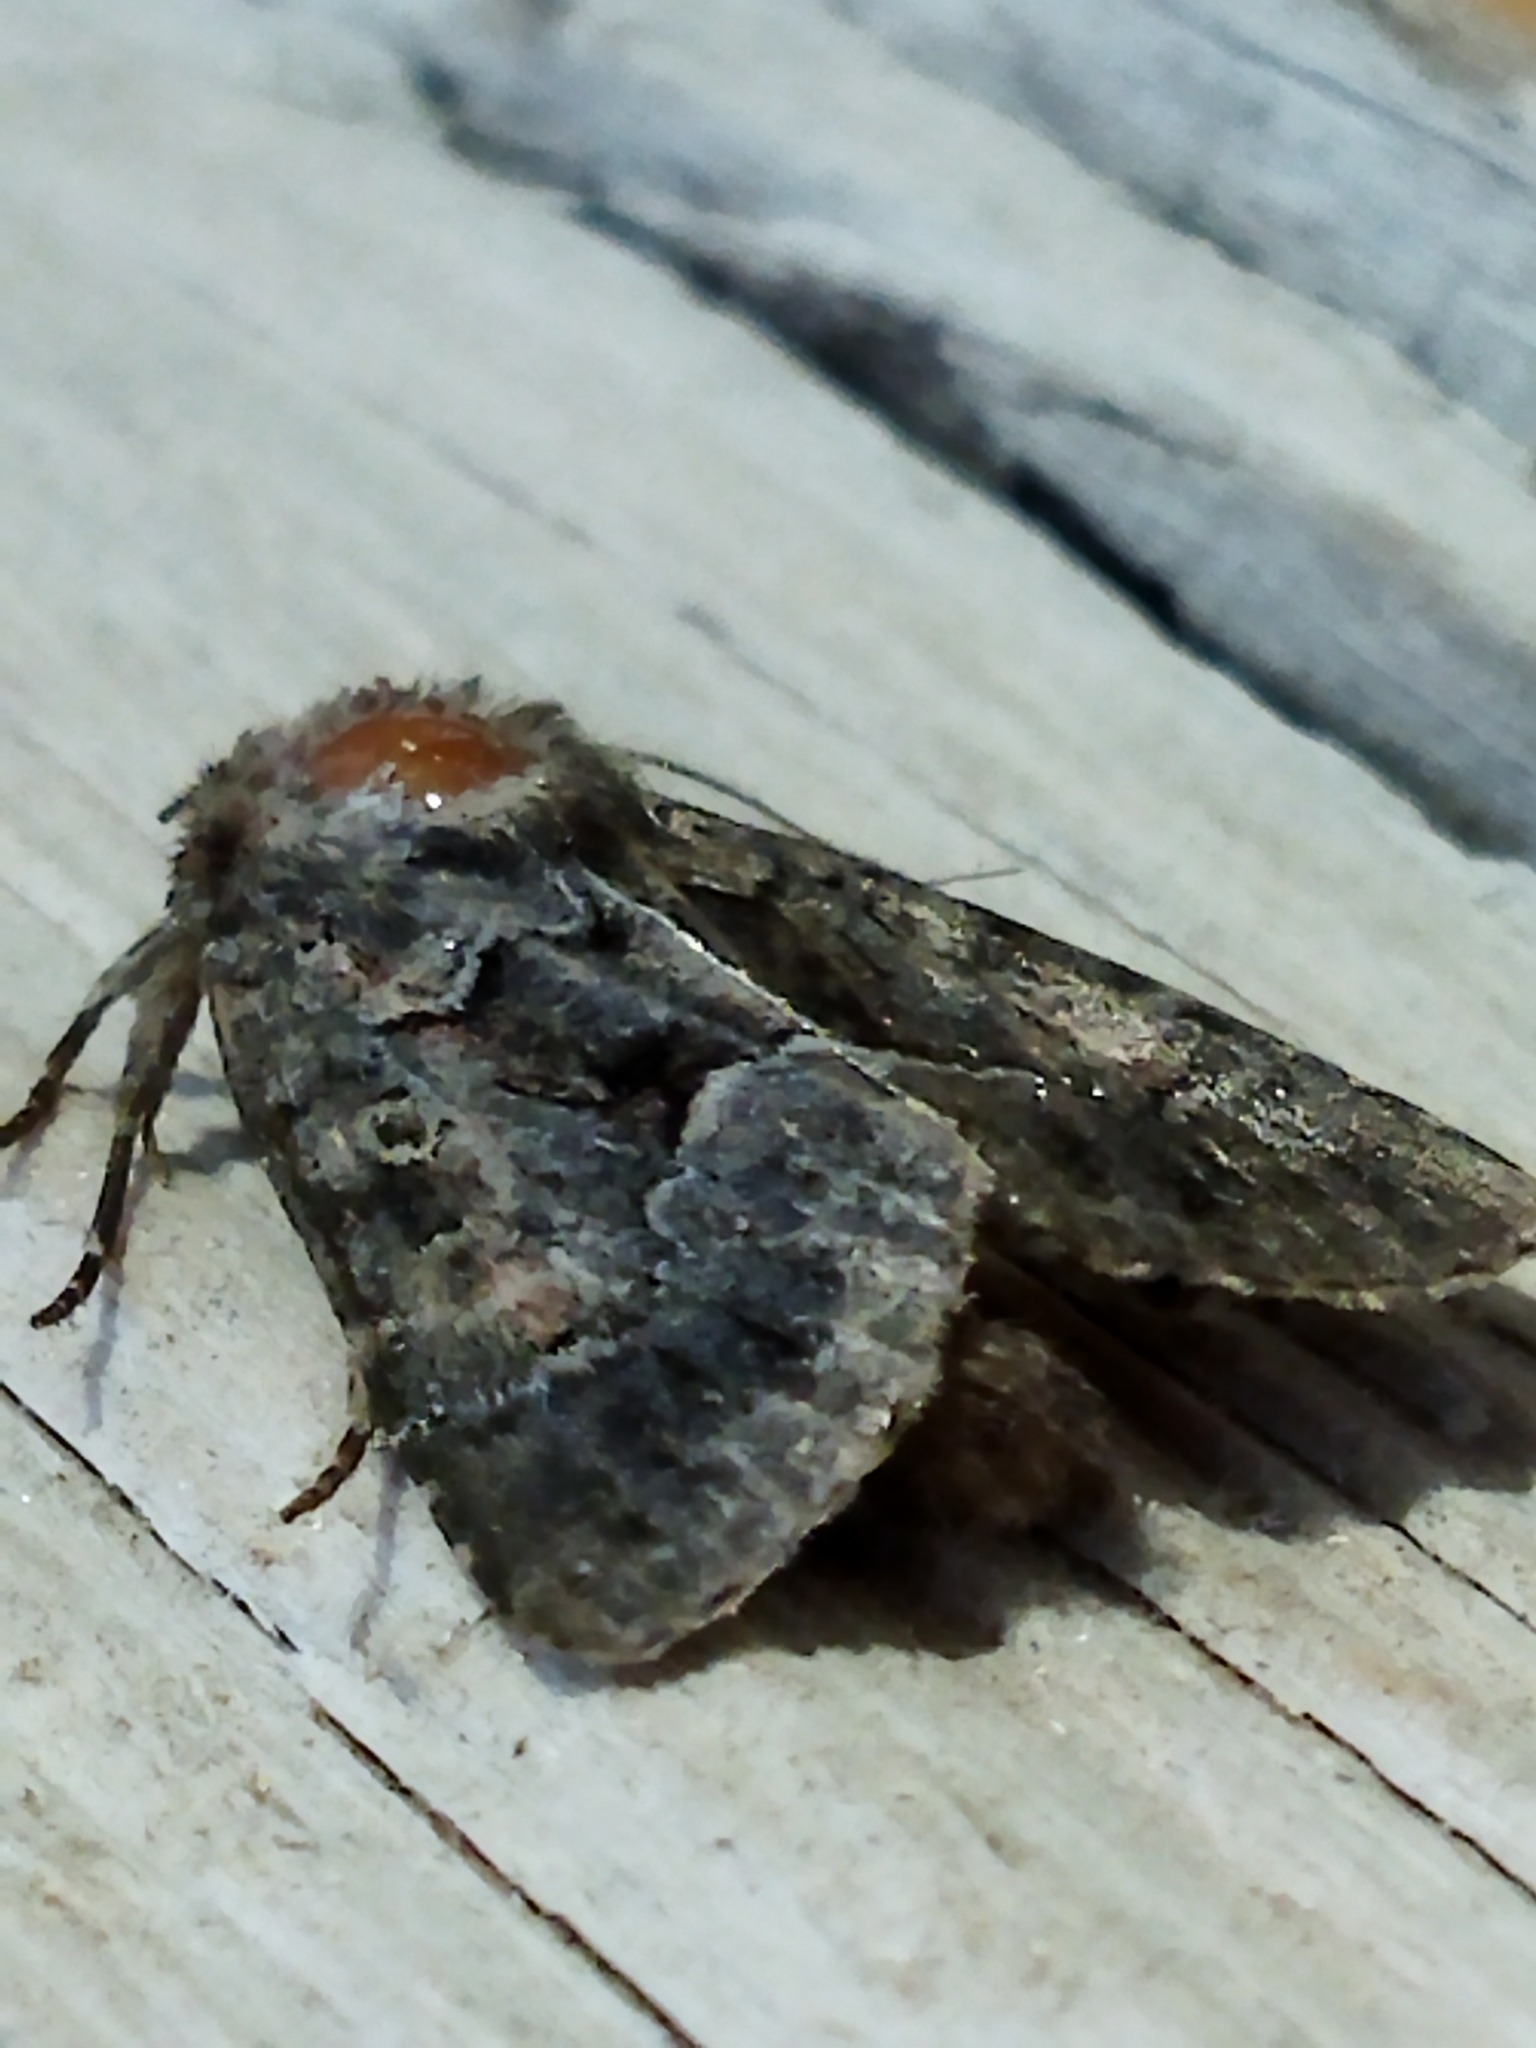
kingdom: Animalia
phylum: Arthropoda
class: Insecta
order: Lepidoptera
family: Noctuidae
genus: Thalpophila
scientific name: Thalpophila matura
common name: Straw underwing
